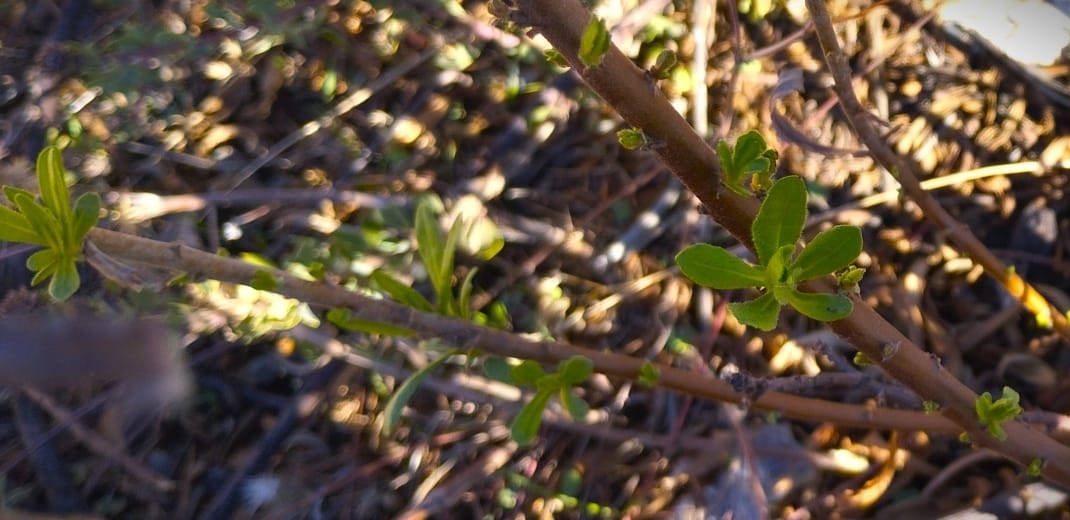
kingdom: Plantae
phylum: Tracheophyta
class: Magnoliopsida
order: Lamiales
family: Oleaceae
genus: Chrysojasminum
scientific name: Chrysojasminum fruticans
